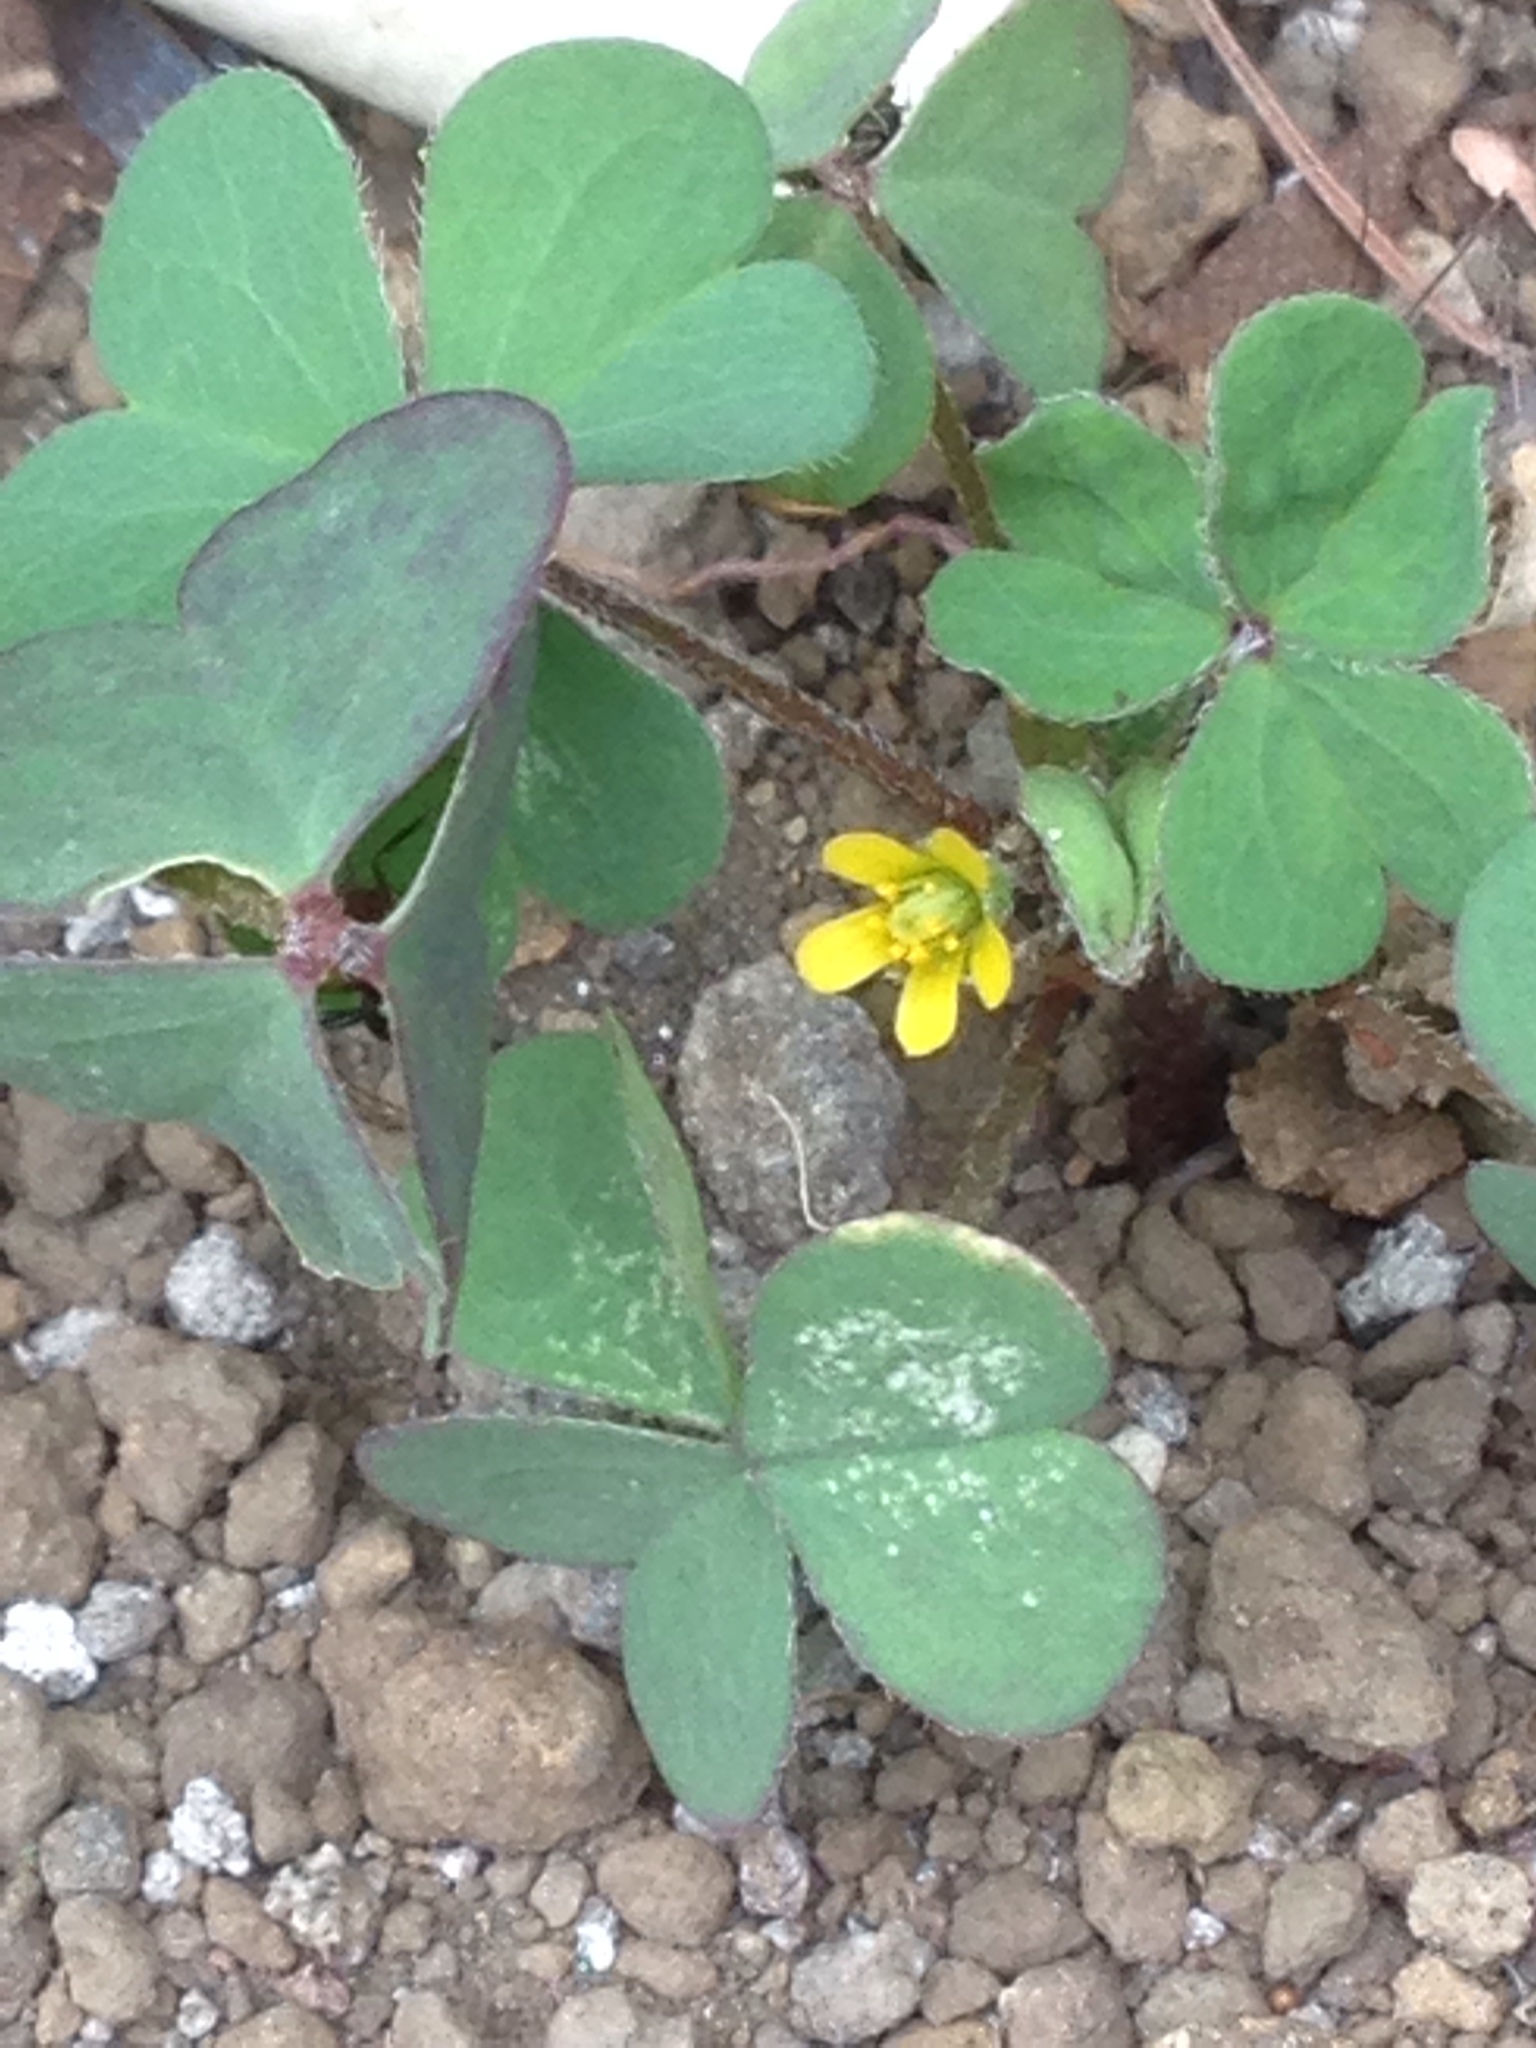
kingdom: Plantae
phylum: Tracheophyta
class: Magnoliopsida
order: Oxalidales
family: Oxalidaceae
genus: Oxalis
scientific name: Oxalis corniculata
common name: Procumbent yellow-sorrel
